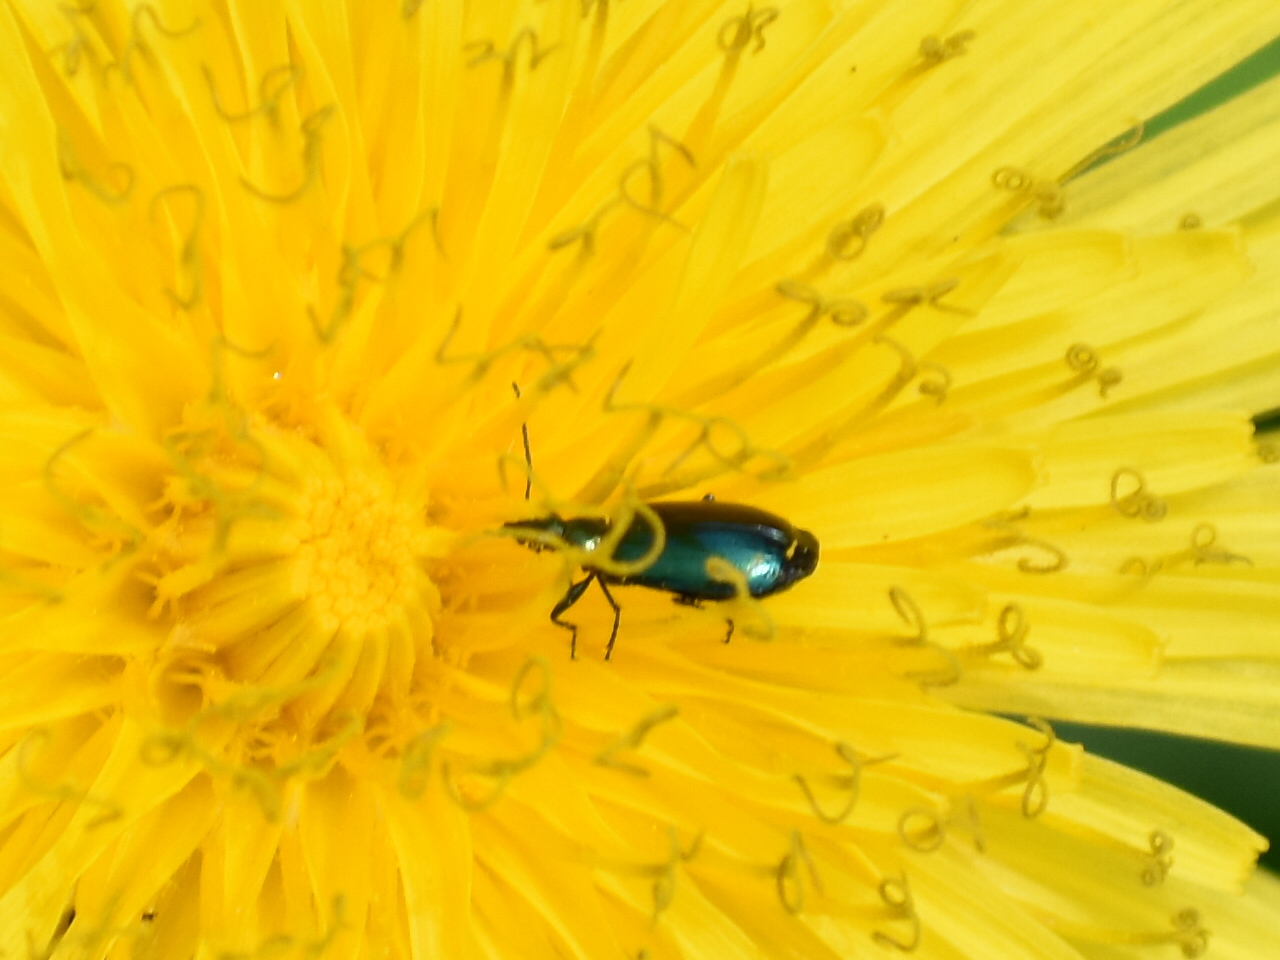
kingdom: Animalia
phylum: Arthropoda
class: Insecta
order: Coleoptera
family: Carabidae
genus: Lebia
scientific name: Lebia viridis
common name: Flower lebia beetle
